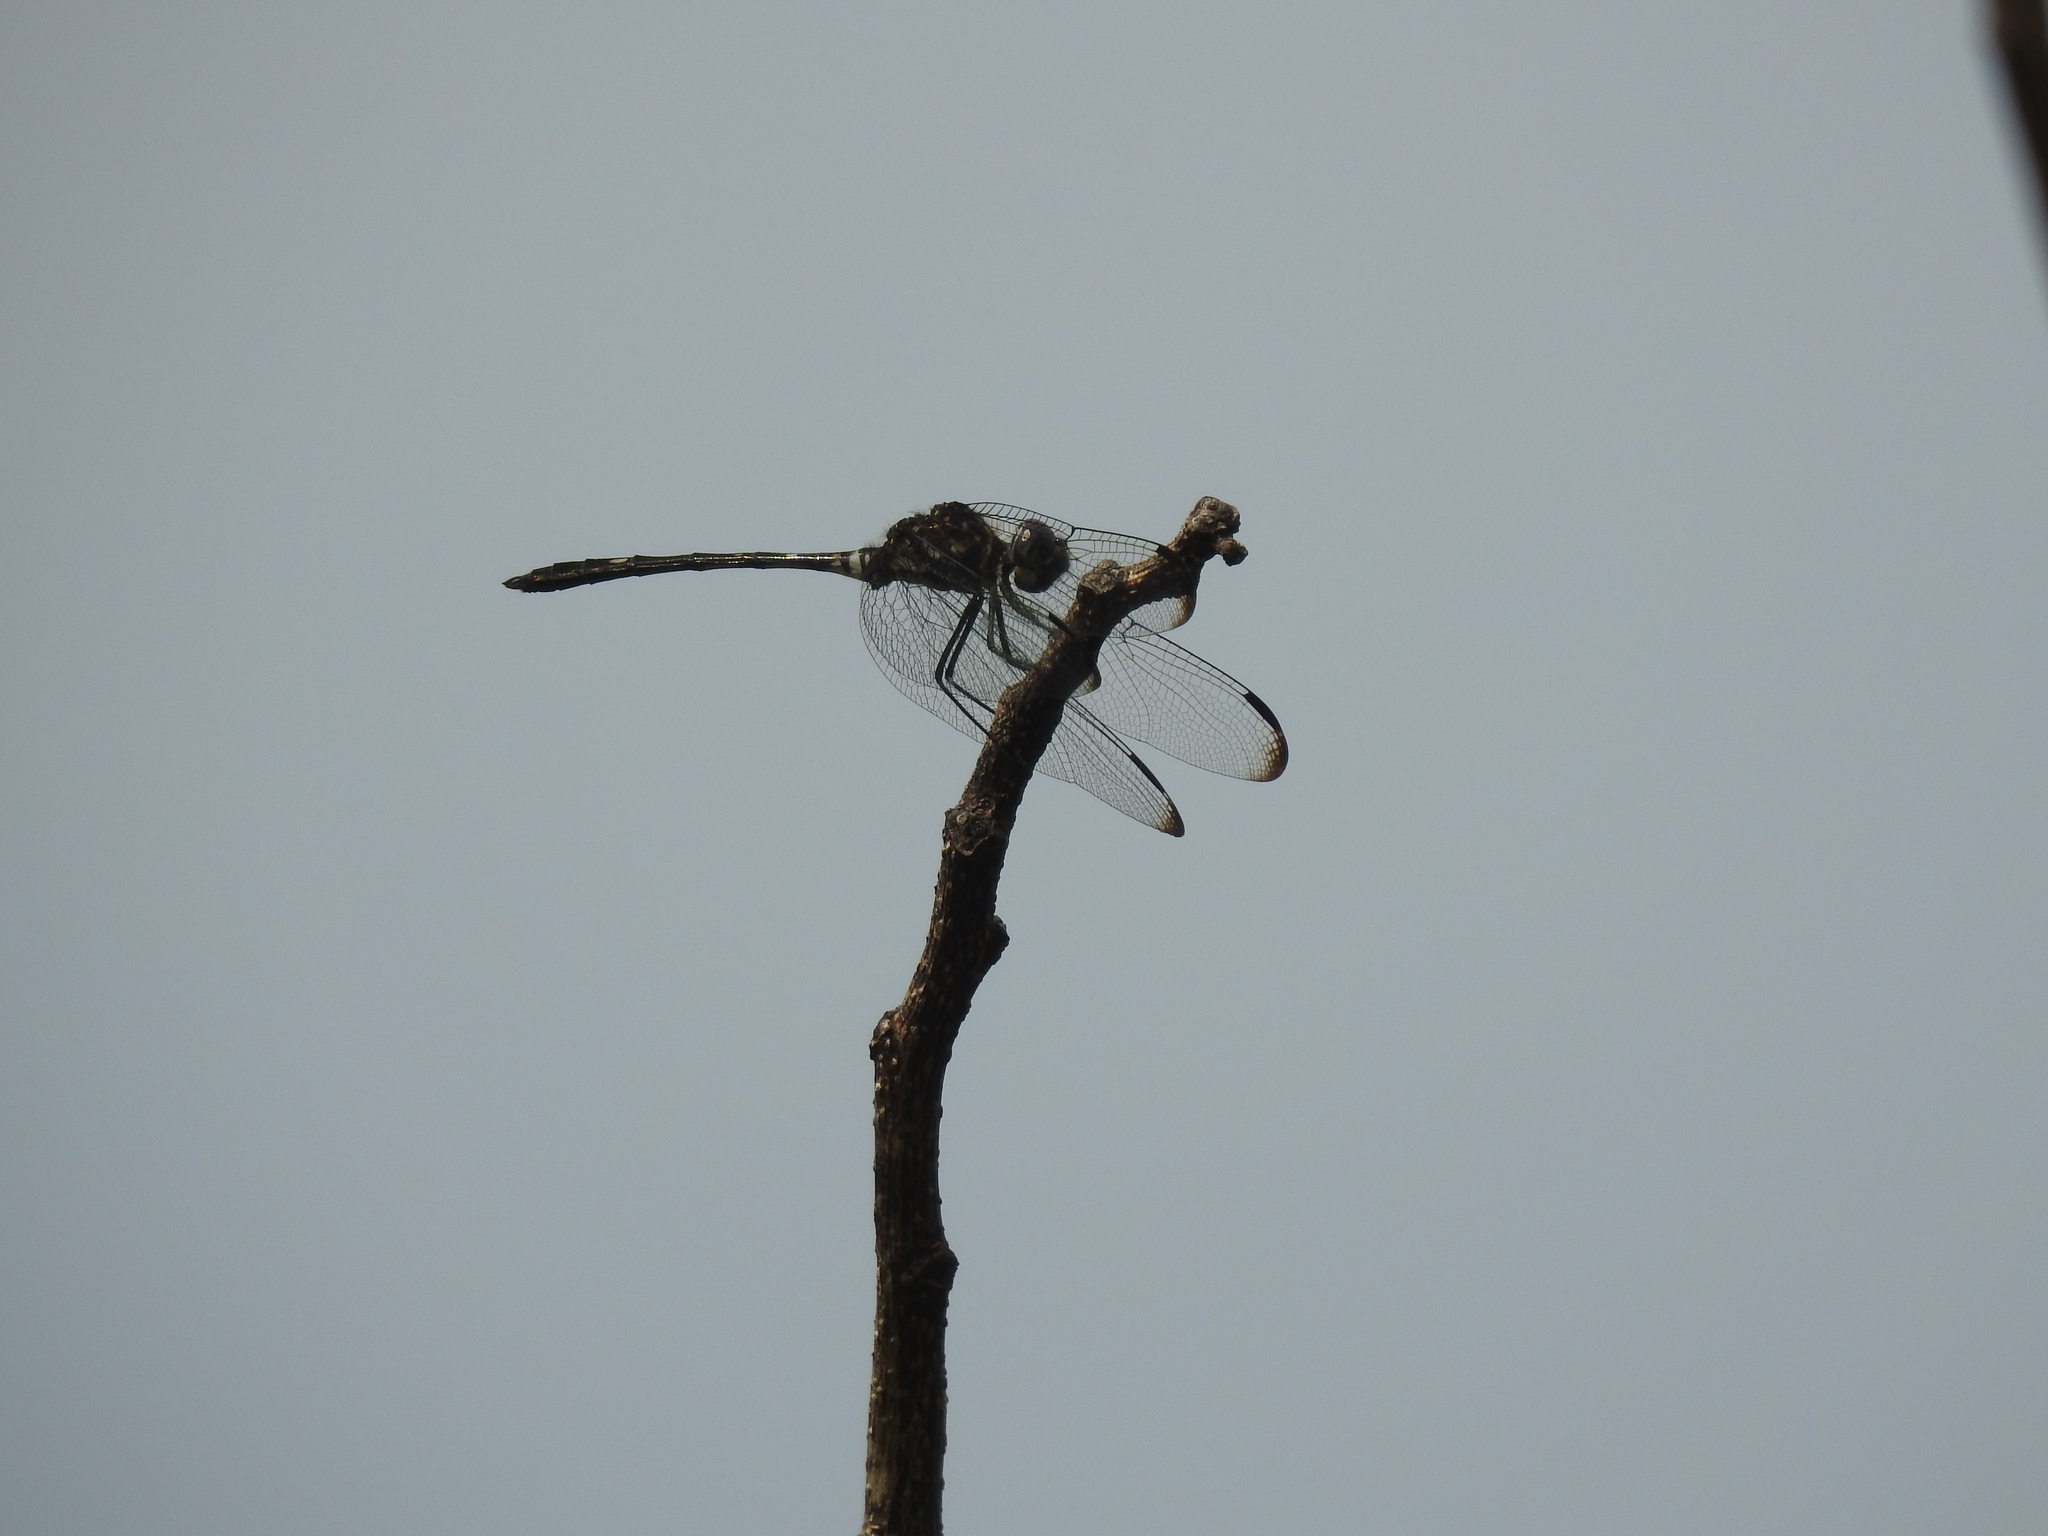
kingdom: Animalia
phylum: Arthropoda
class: Insecta
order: Odonata
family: Libellulidae
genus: Dythemis
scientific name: Dythemis velox
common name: Swift setwing
